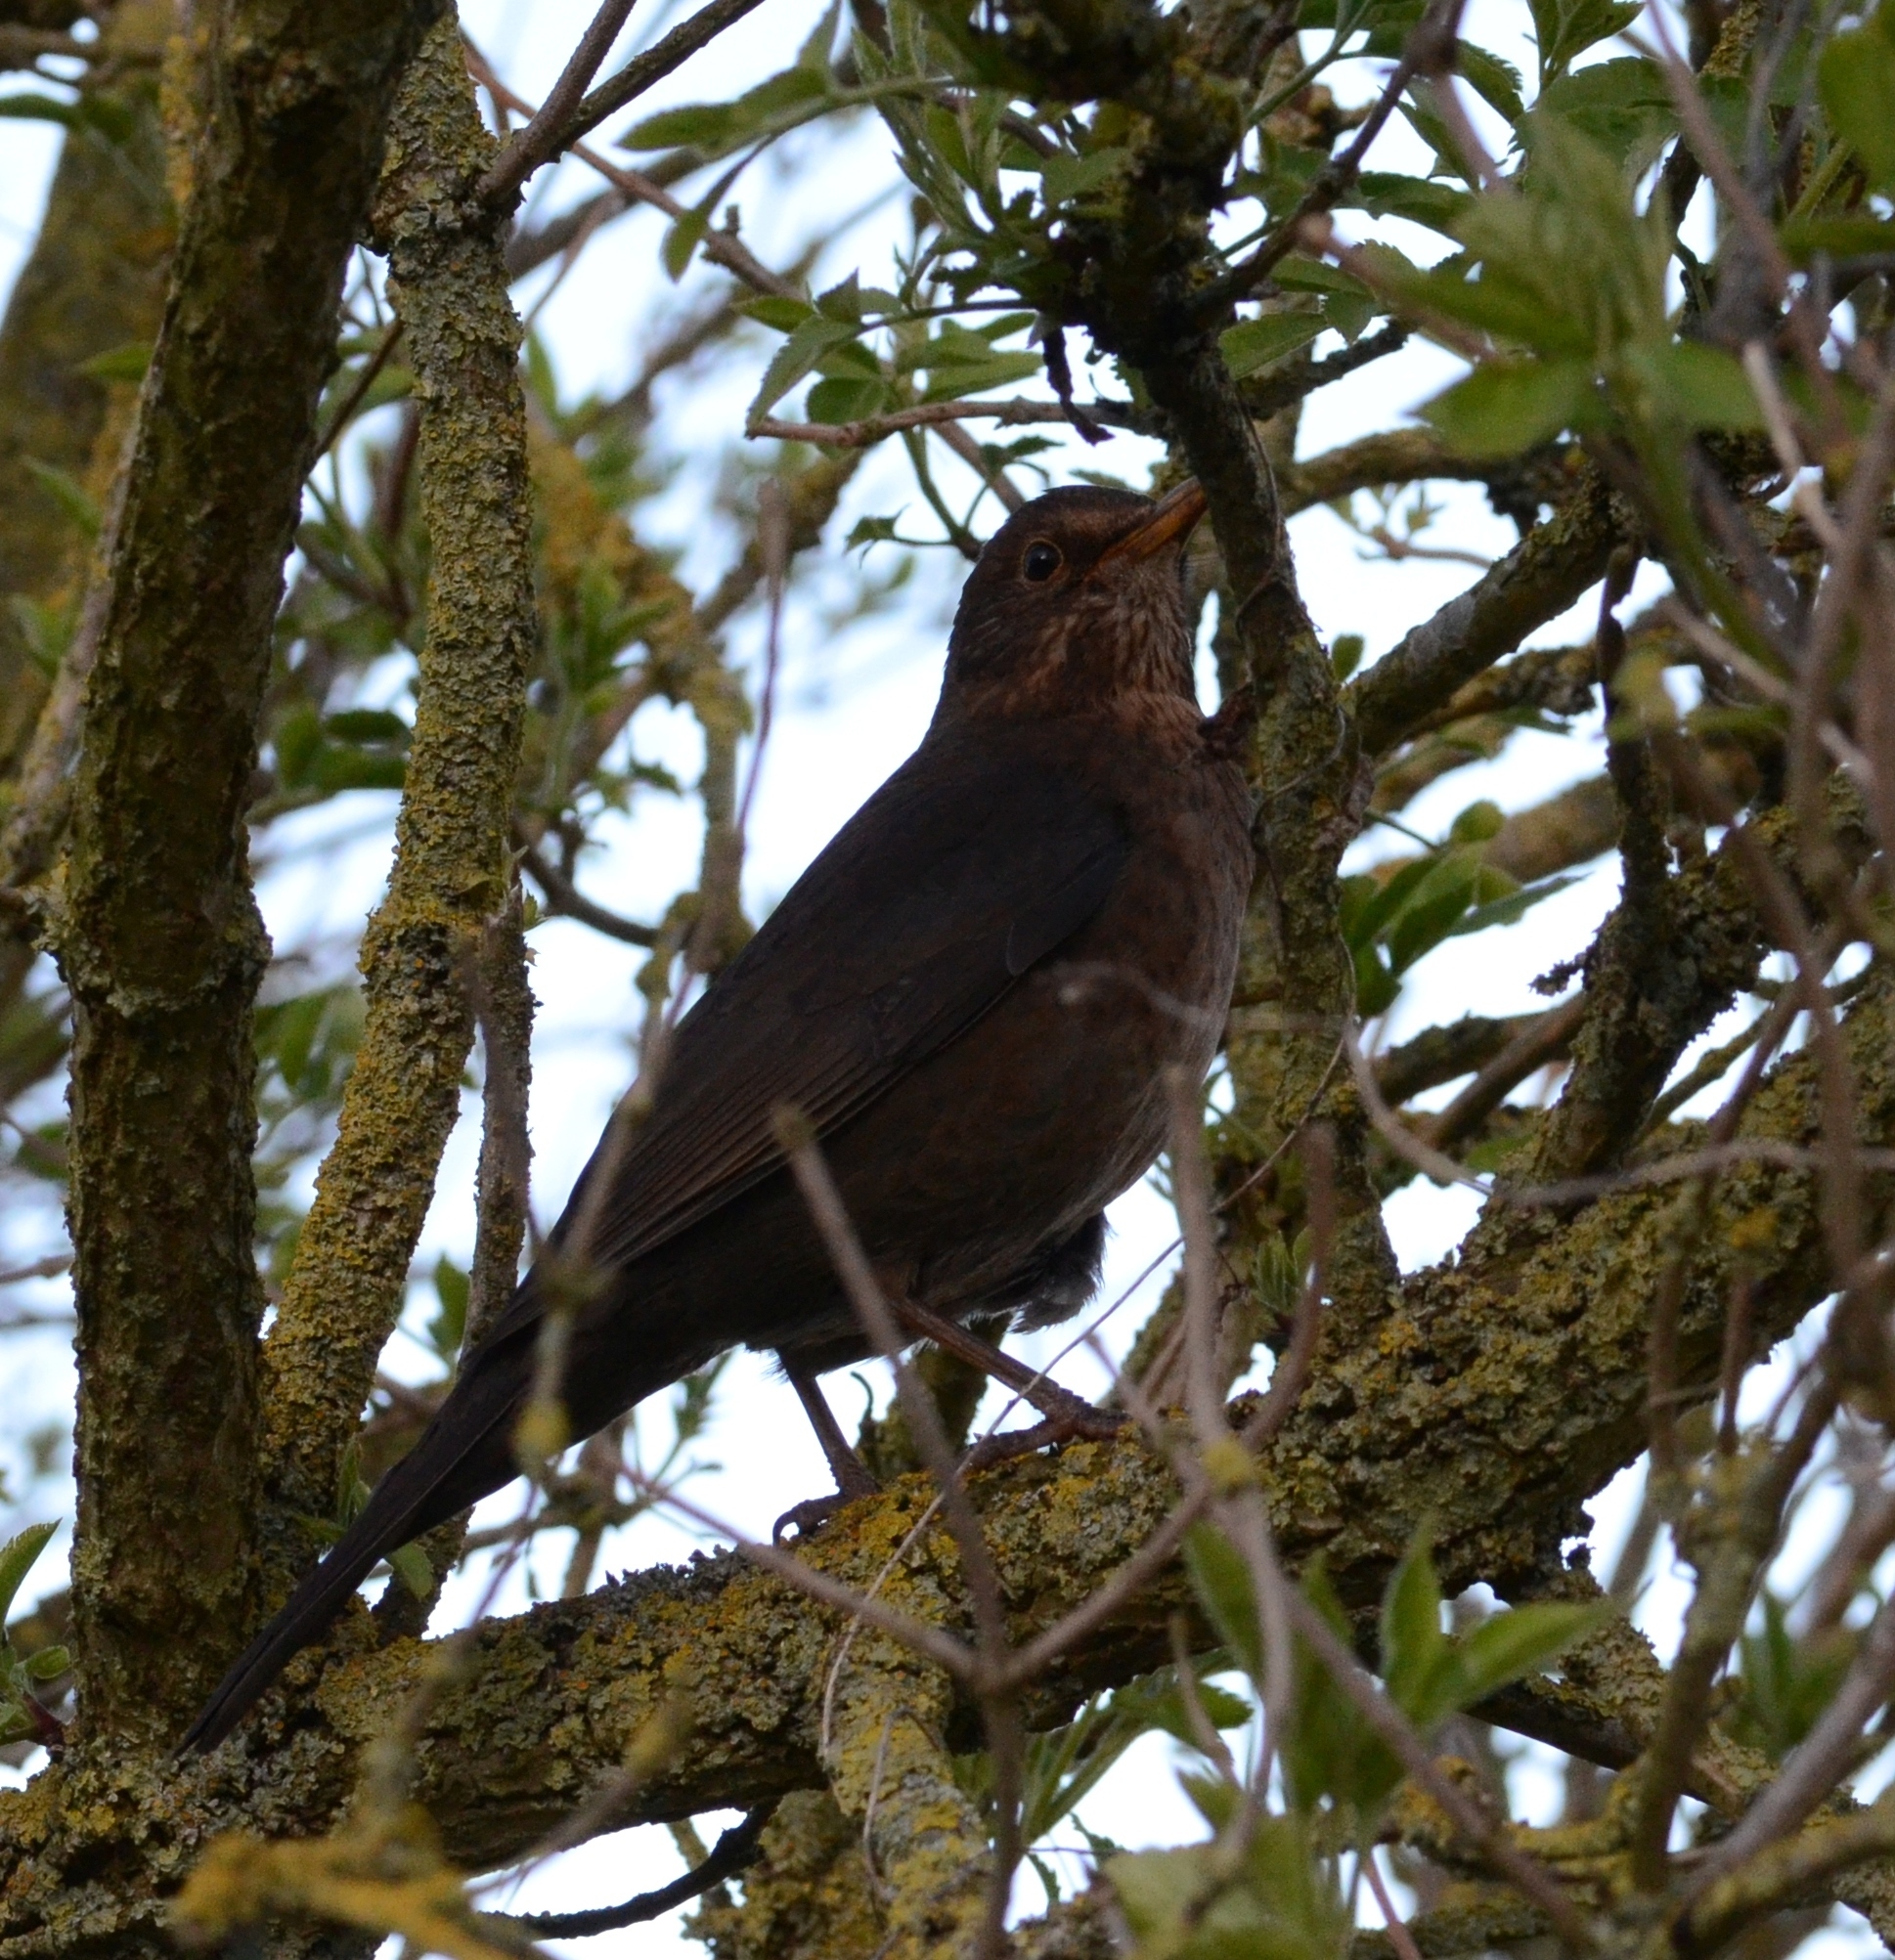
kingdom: Animalia
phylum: Chordata
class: Aves
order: Passeriformes
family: Turdidae
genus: Turdus
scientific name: Turdus merula
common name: Common blackbird
